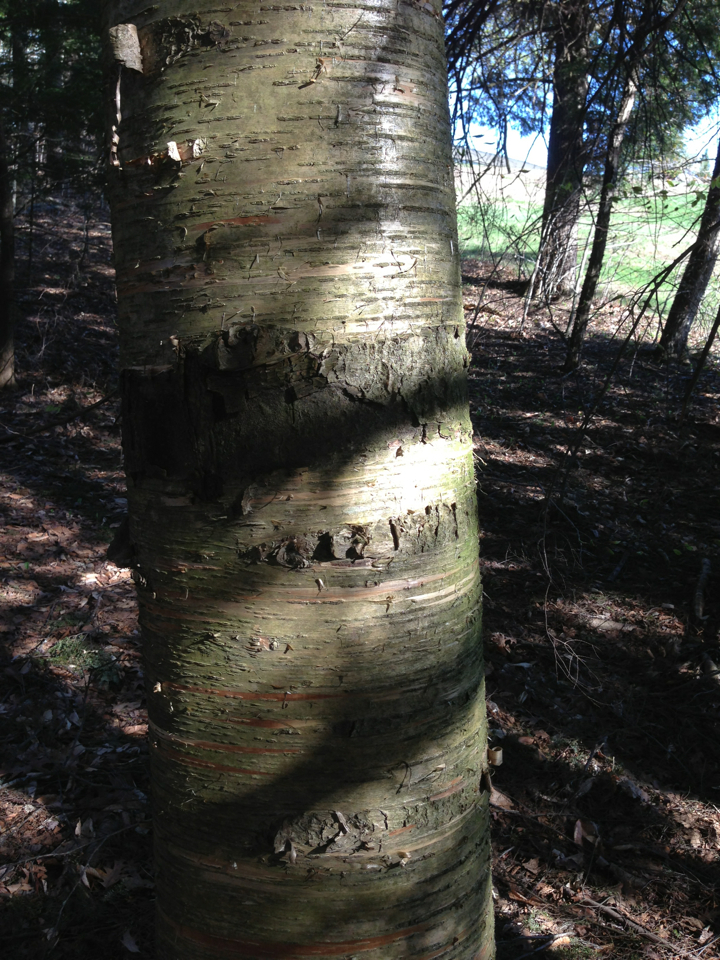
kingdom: Plantae
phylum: Tracheophyta
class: Magnoliopsida
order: Fagales
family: Betulaceae
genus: Betula
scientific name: Betula alleghaniensis
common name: Yellow birch
